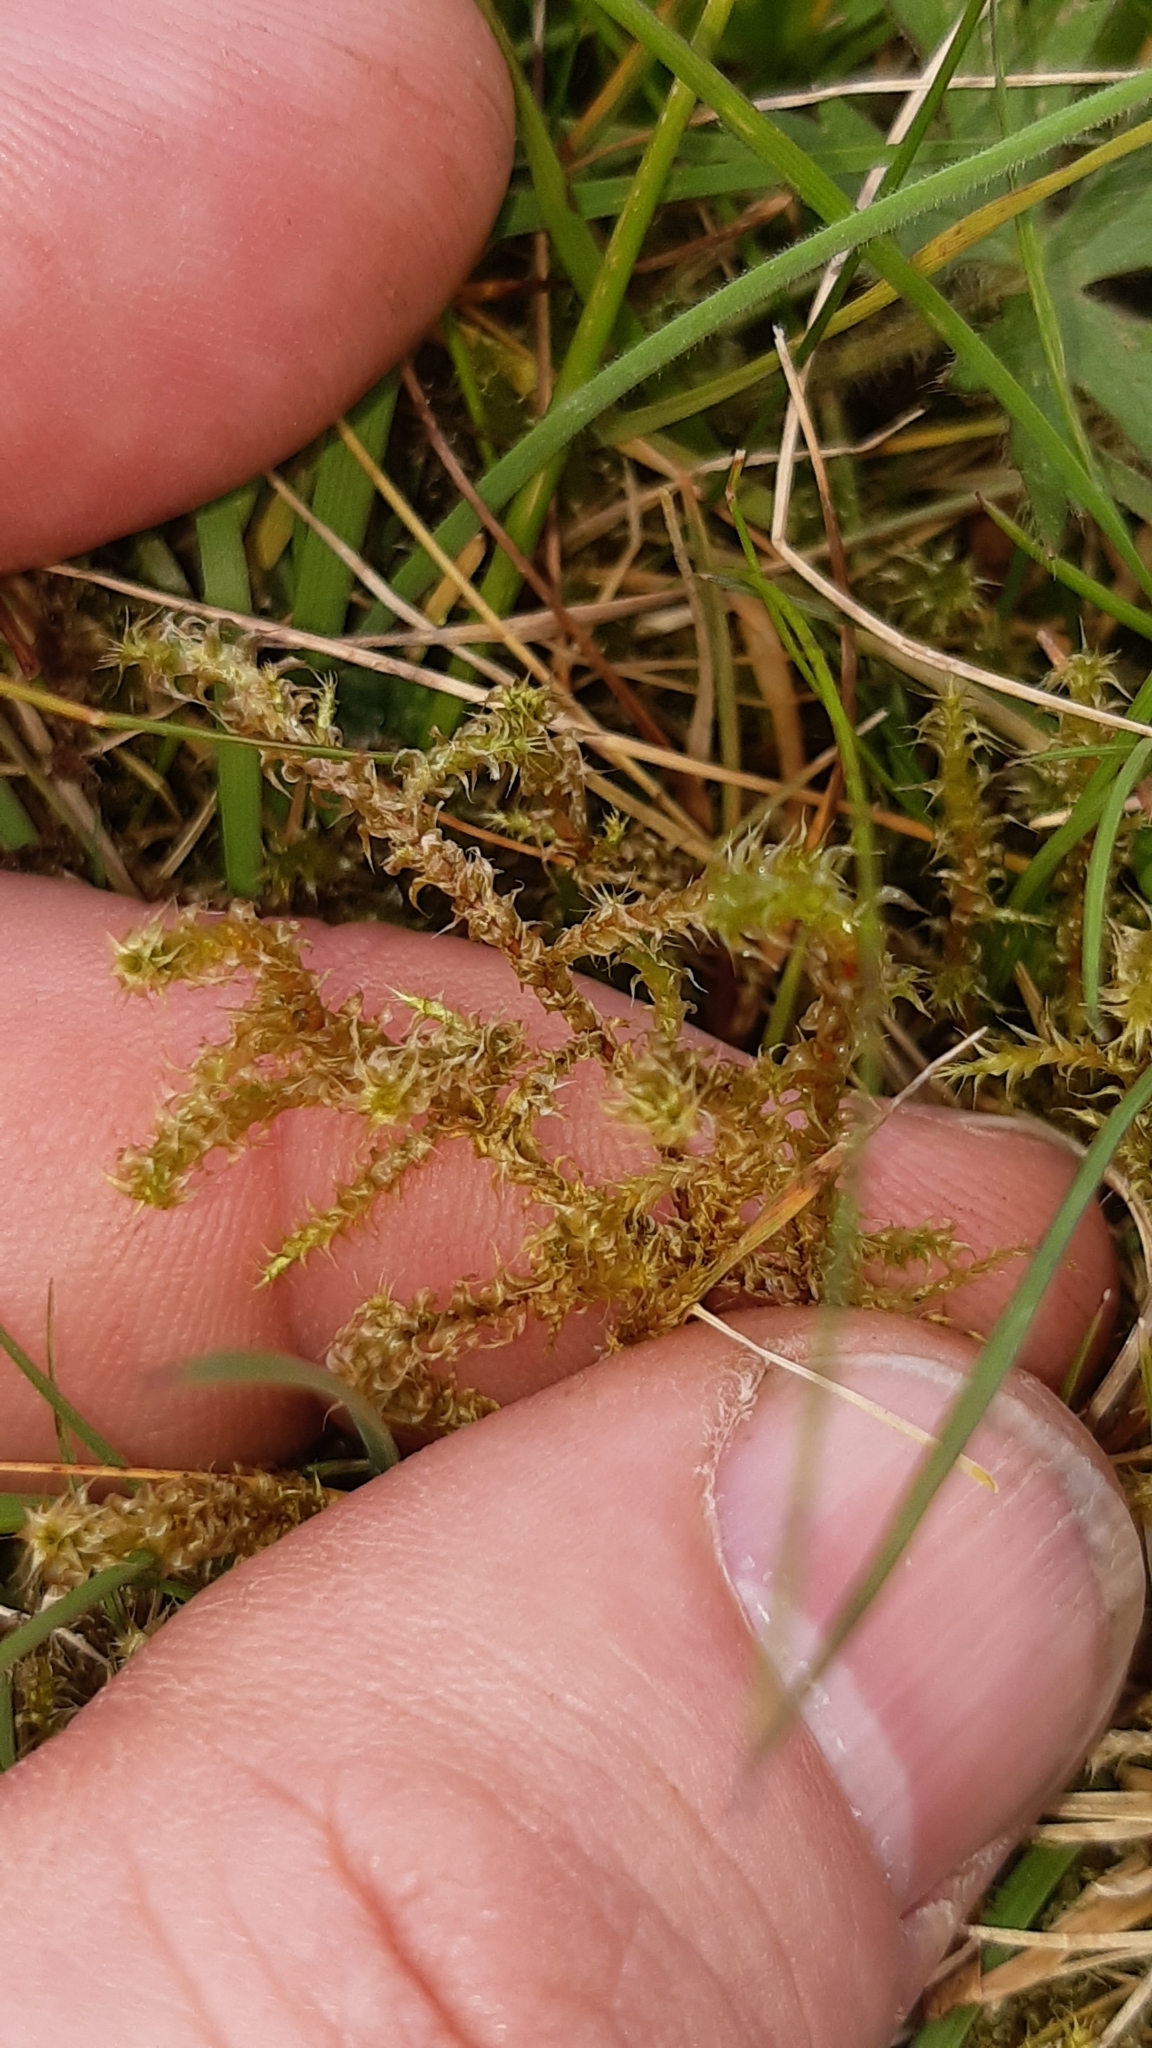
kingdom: Plantae
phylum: Bryophyta
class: Bryopsida
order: Hypnales
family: Hylocomiaceae
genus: Rhytidiadelphus
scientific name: Rhytidiadelphus squarrosus
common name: Springy turf-moss
